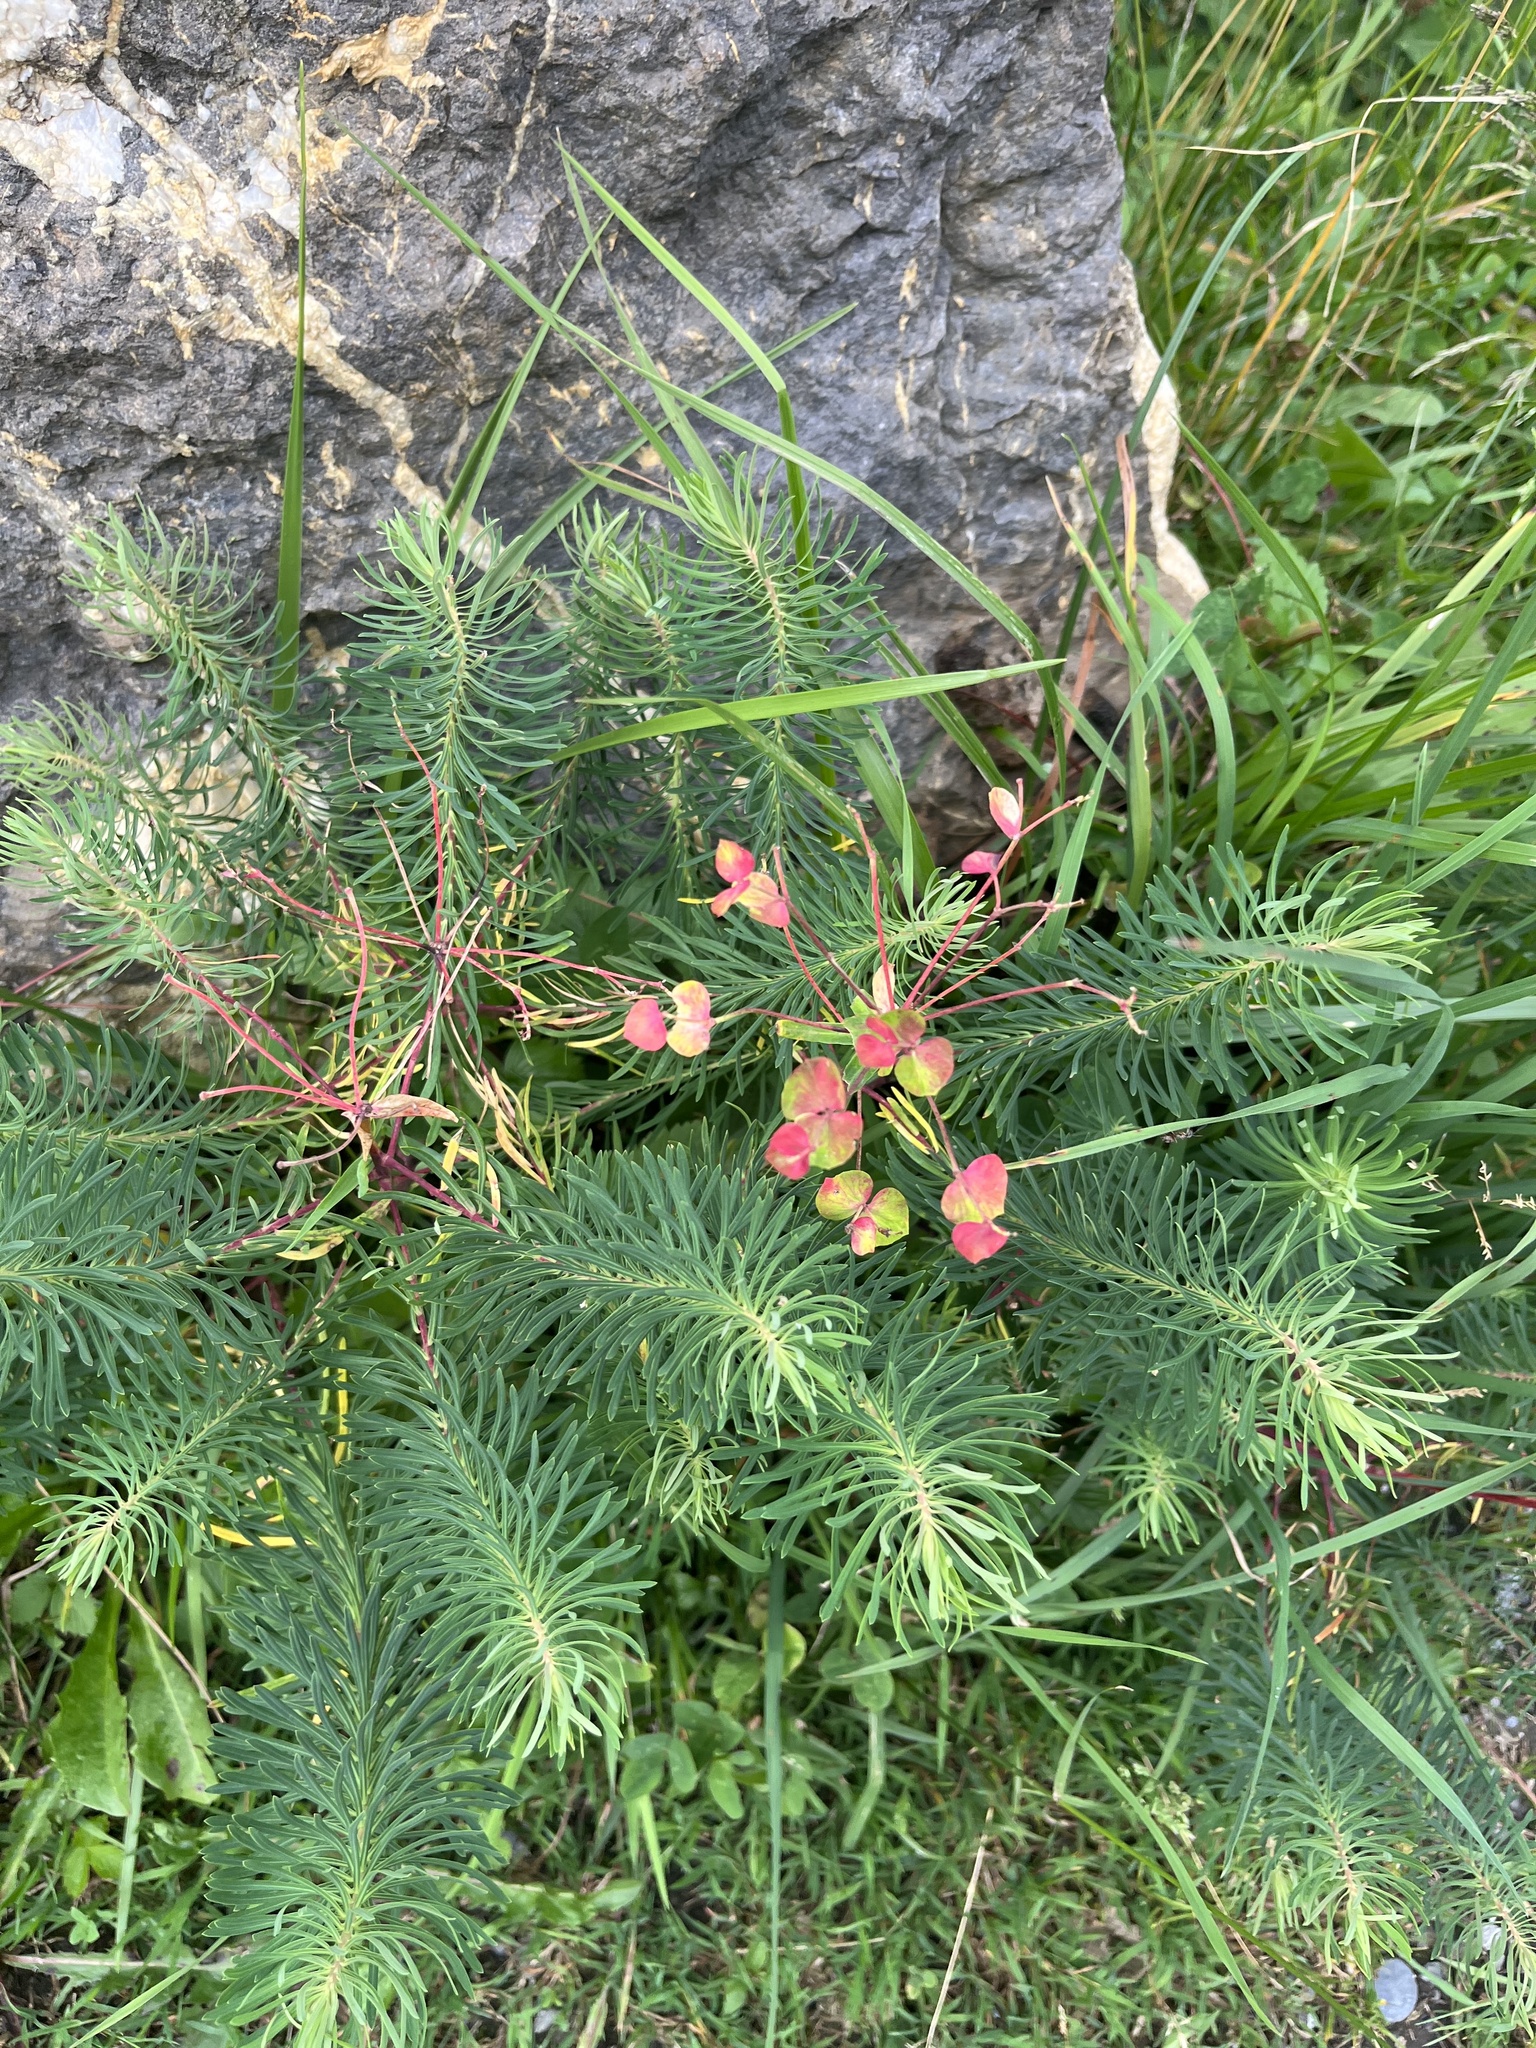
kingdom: Plantae
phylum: Tracheophyta
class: Magnoliopsida
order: Malpighiales
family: Euphorbiaceae
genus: Euphorbia
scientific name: Euphorbia cyparissias
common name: Cypress spurge
